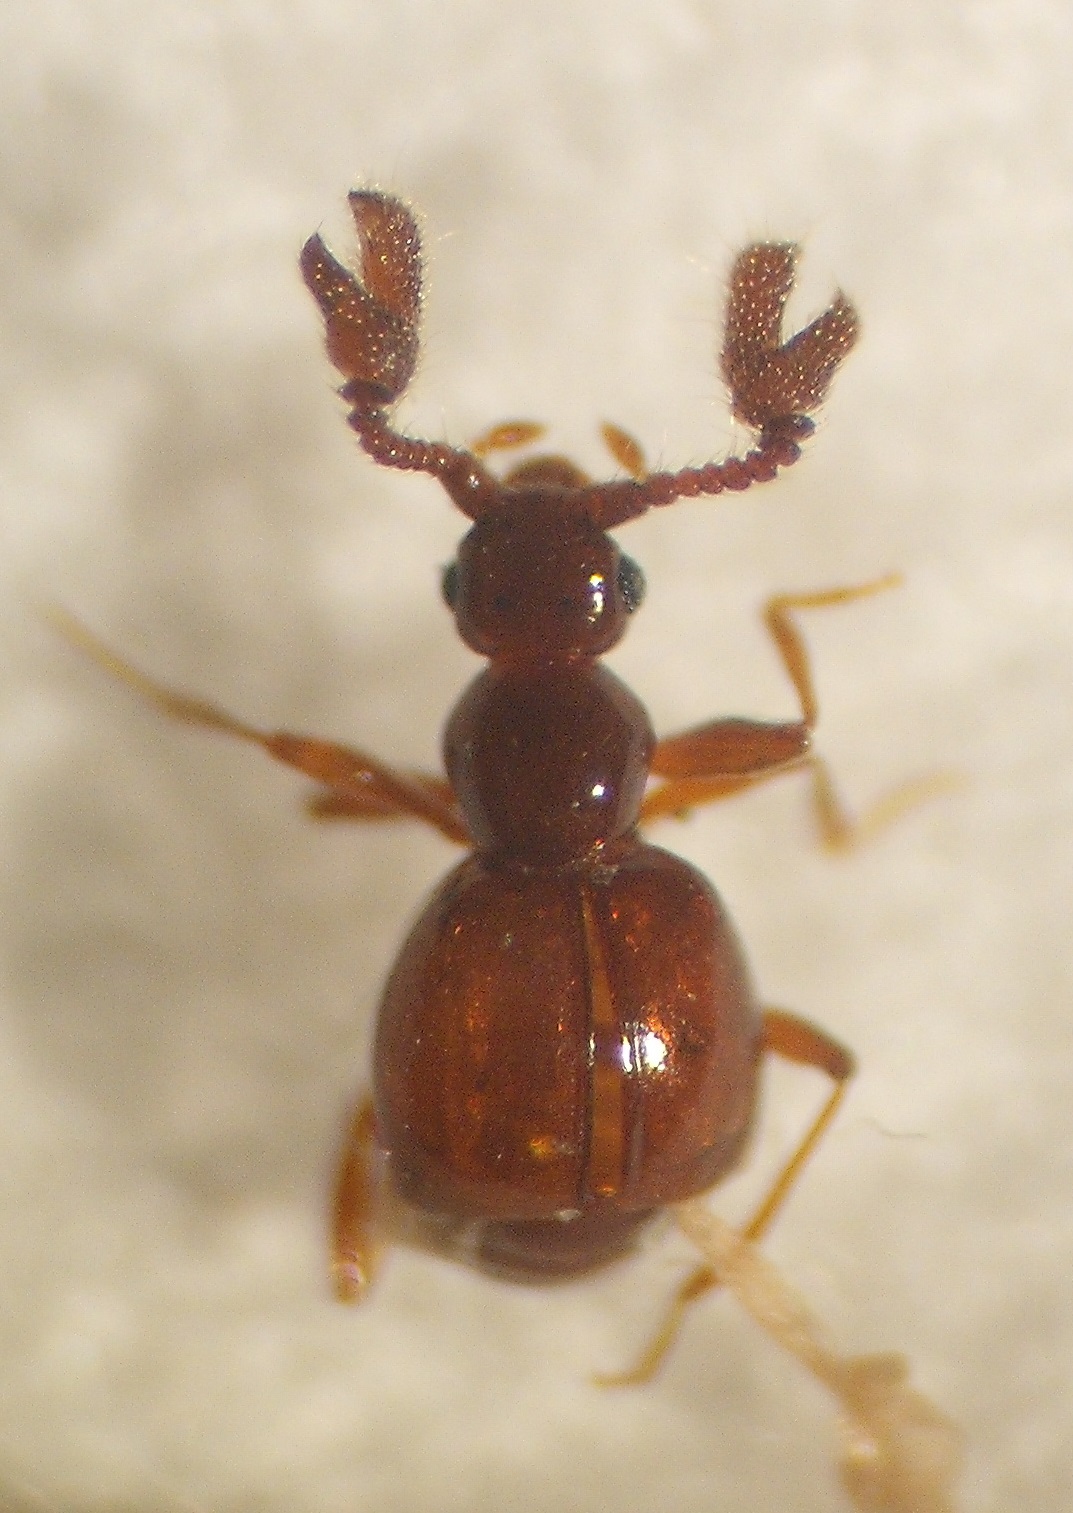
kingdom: Animalia
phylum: Arthropoda
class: Insecta
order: Coleoptera
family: Staphylinidae
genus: Eupines
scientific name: Eupines monstrosa
